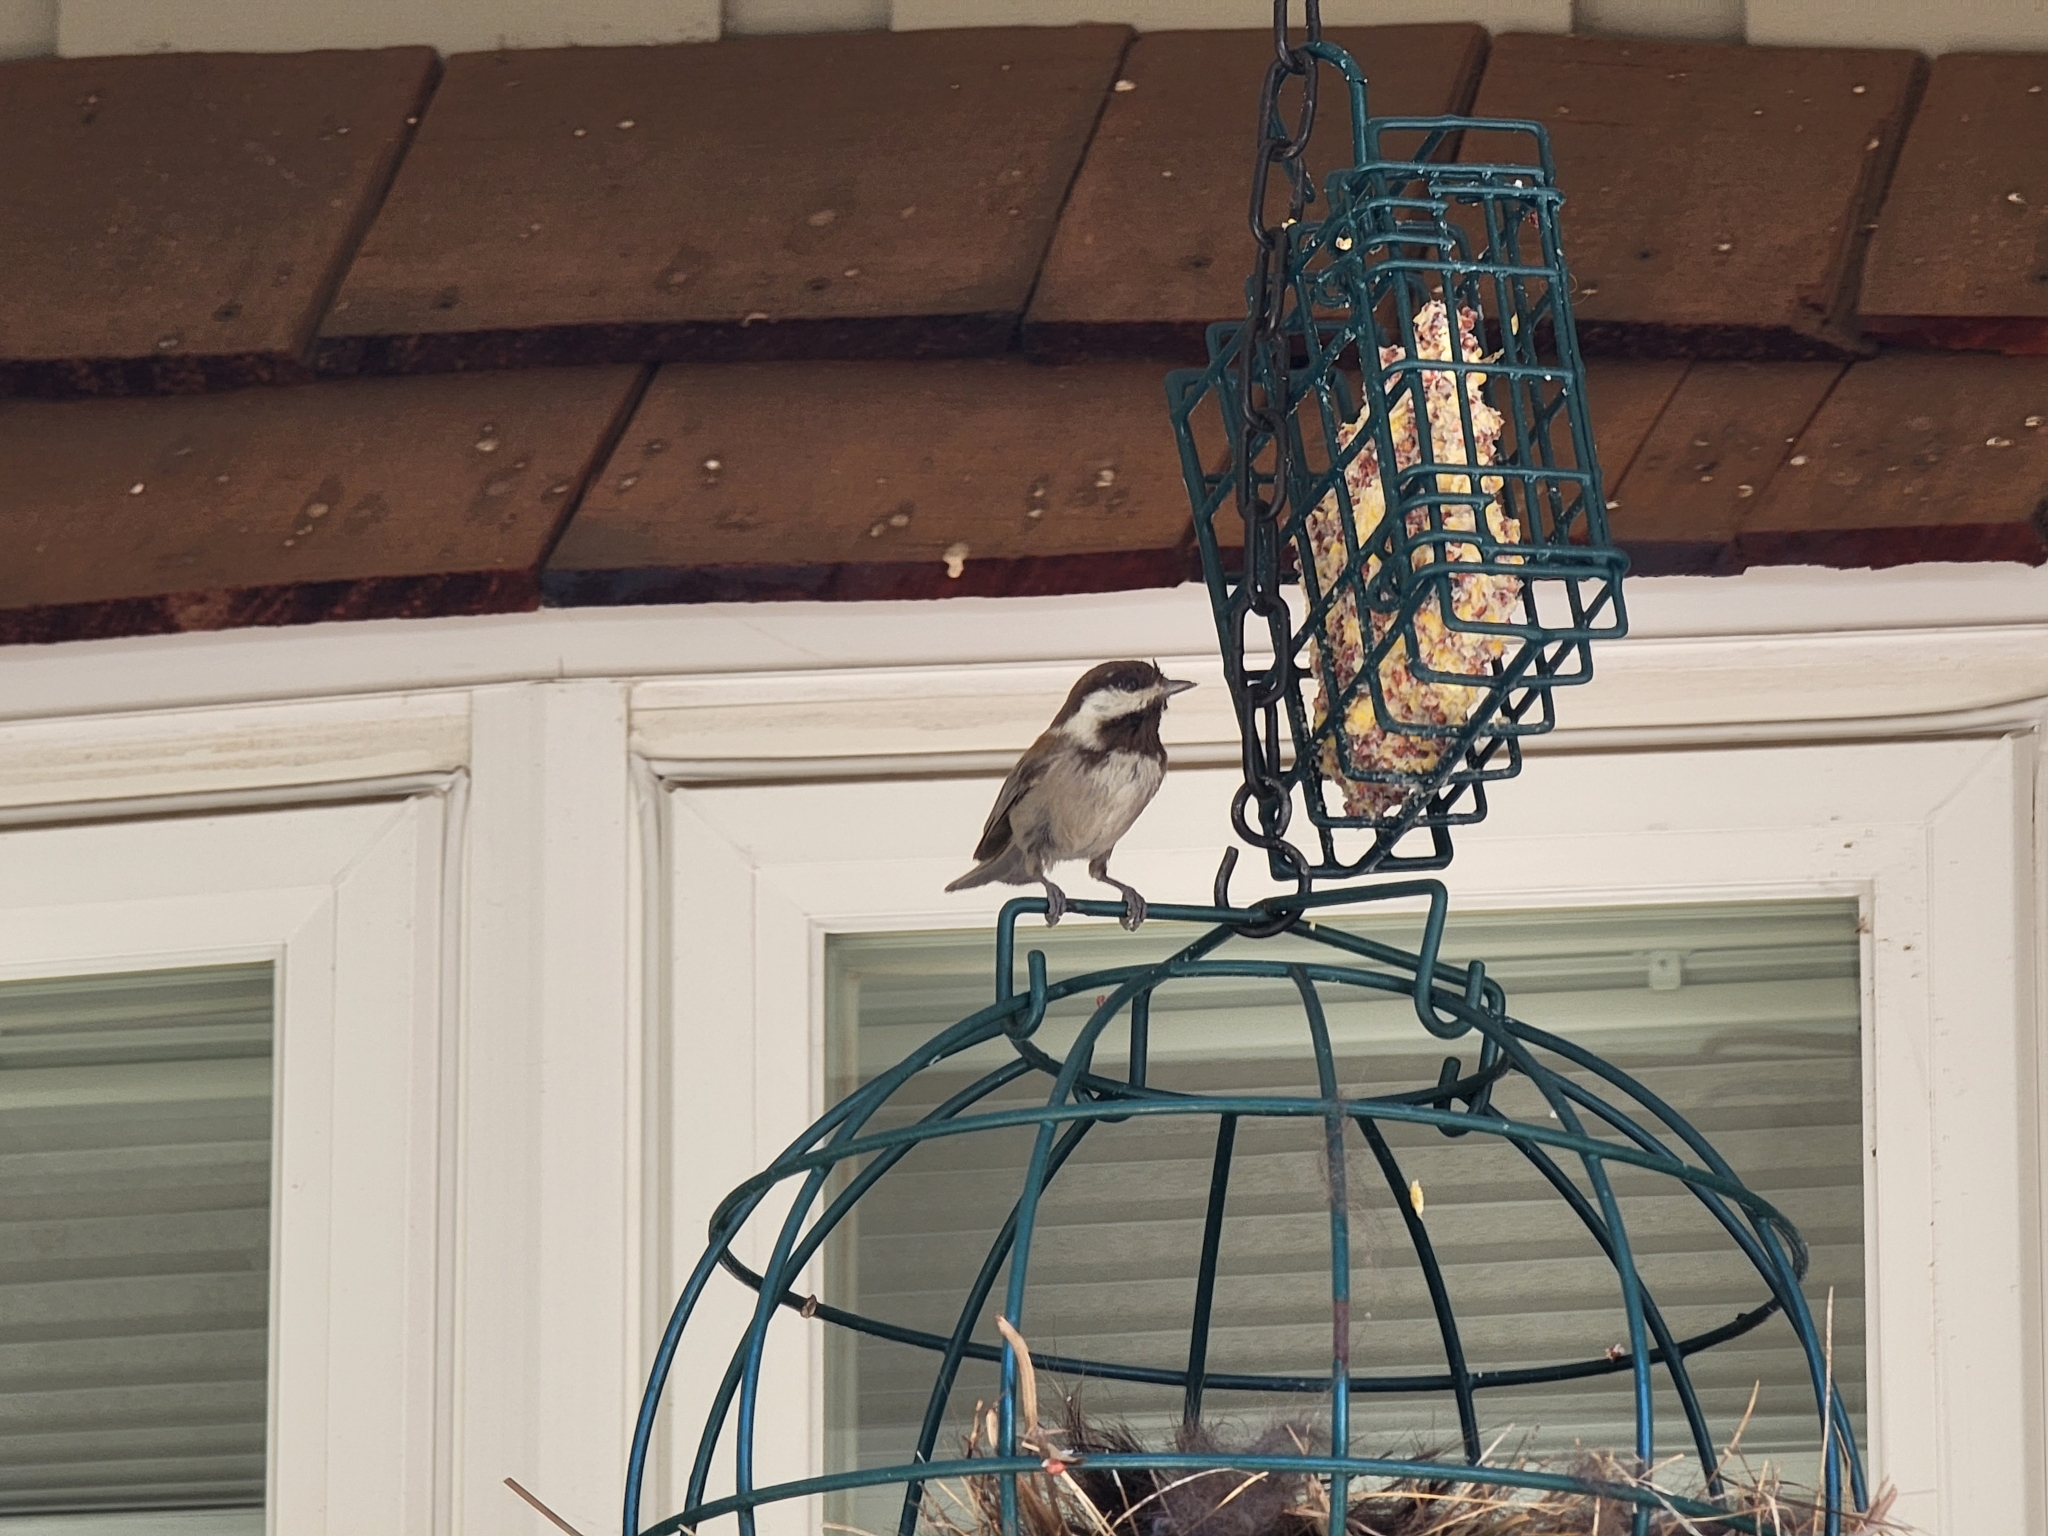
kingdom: Animalia
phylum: Chordata
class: Aves
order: Passeriformes
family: Paridae
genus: Poecile
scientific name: Poecile rufescens
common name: Chestnut-backed chickadee
